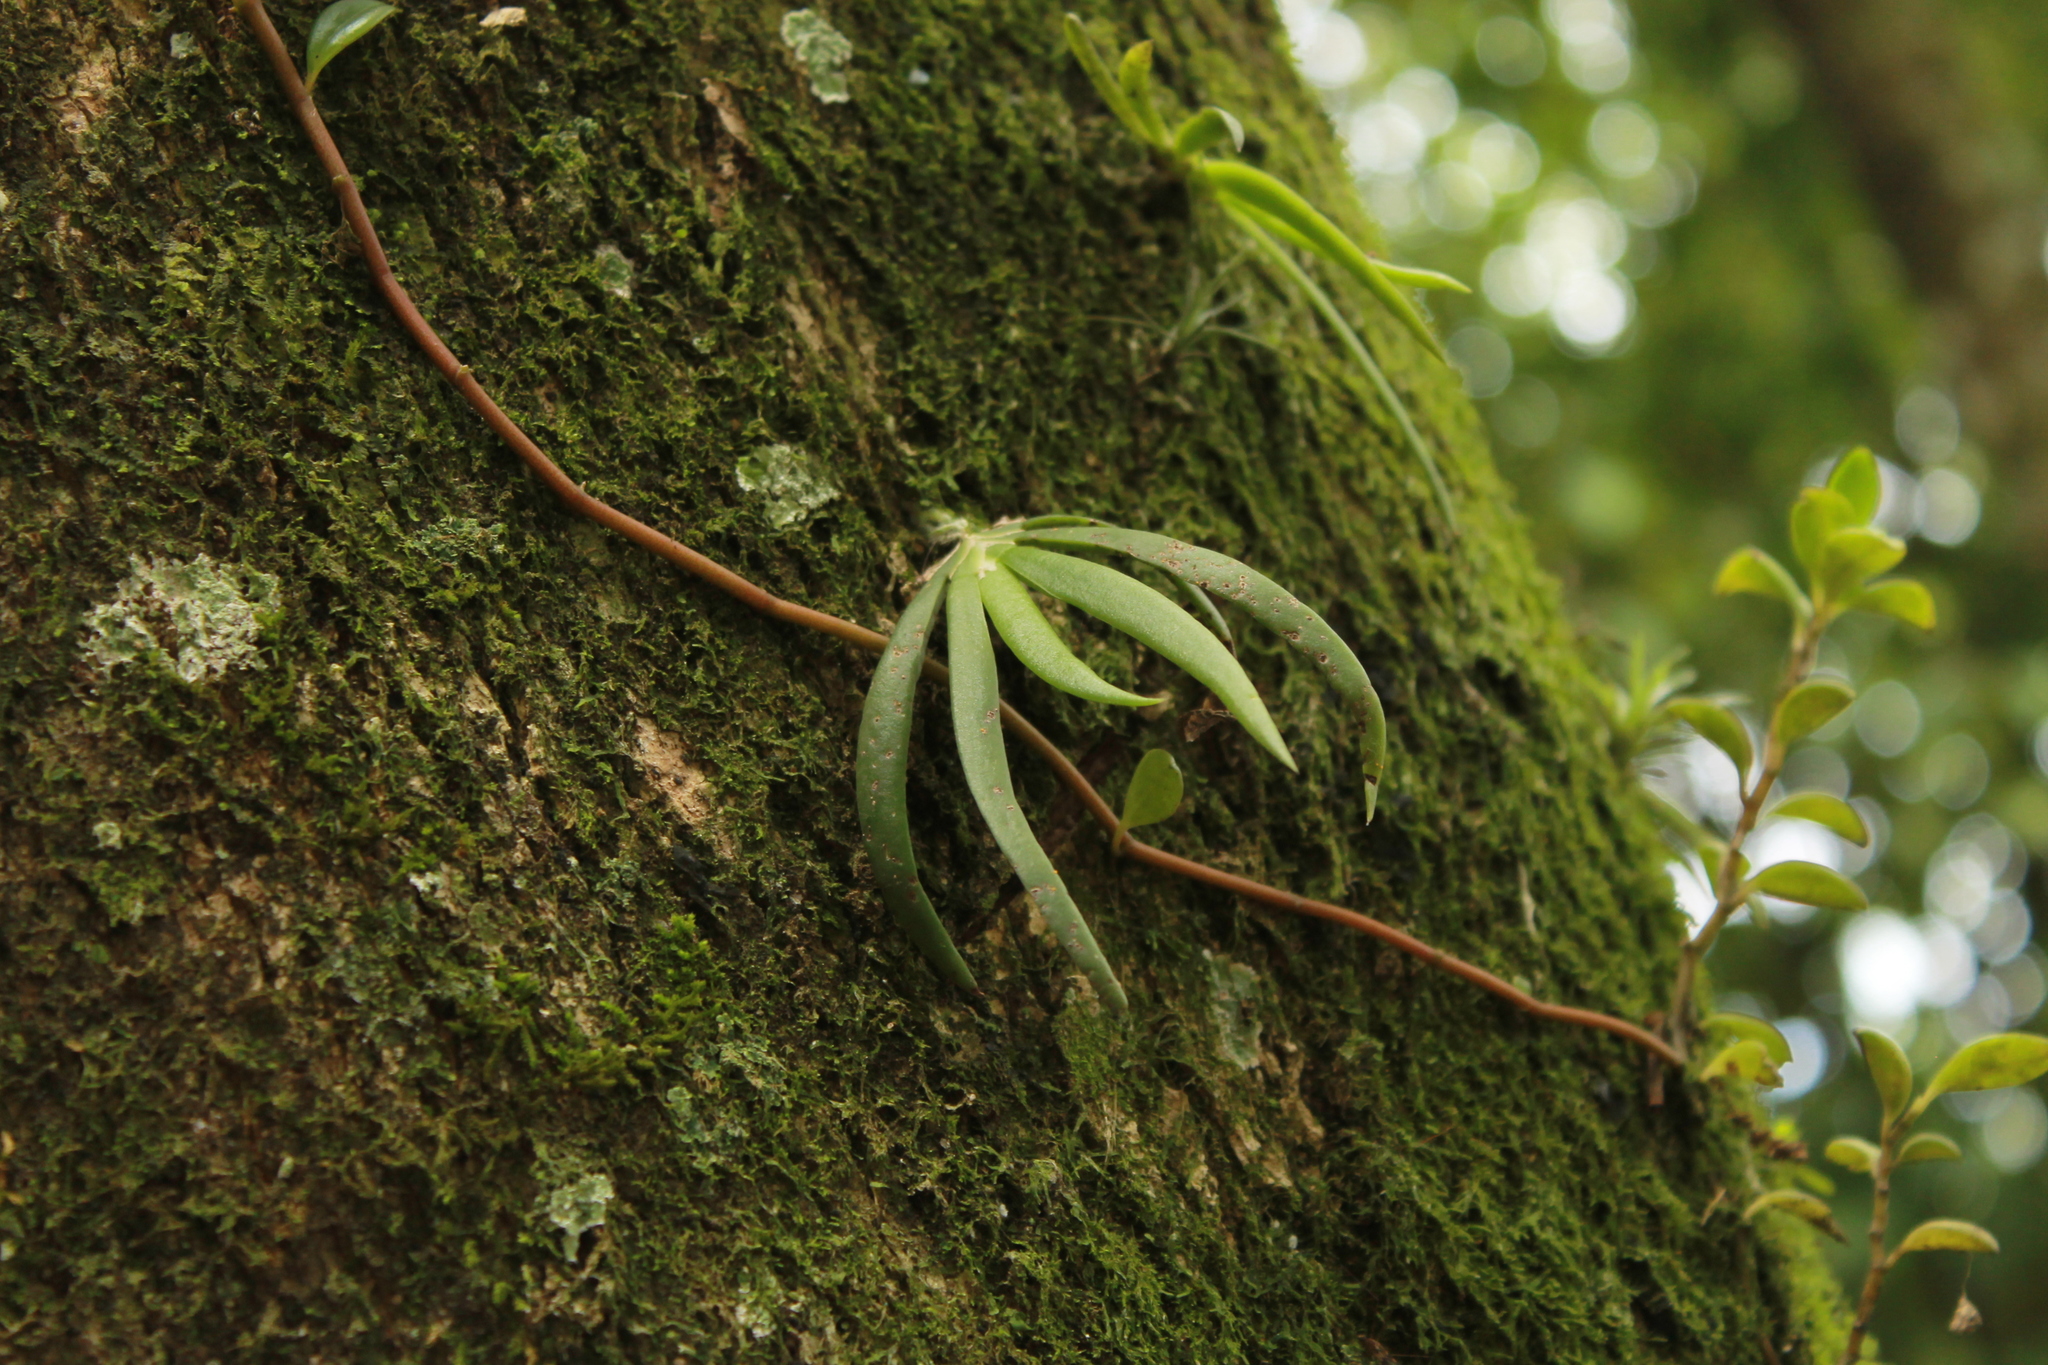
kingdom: Plantae
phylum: Tracheophyta
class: Liliopsida
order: Asparagales
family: Orchidaceae
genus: Ornithocephalus
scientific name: Ornithocephalus inflexus
